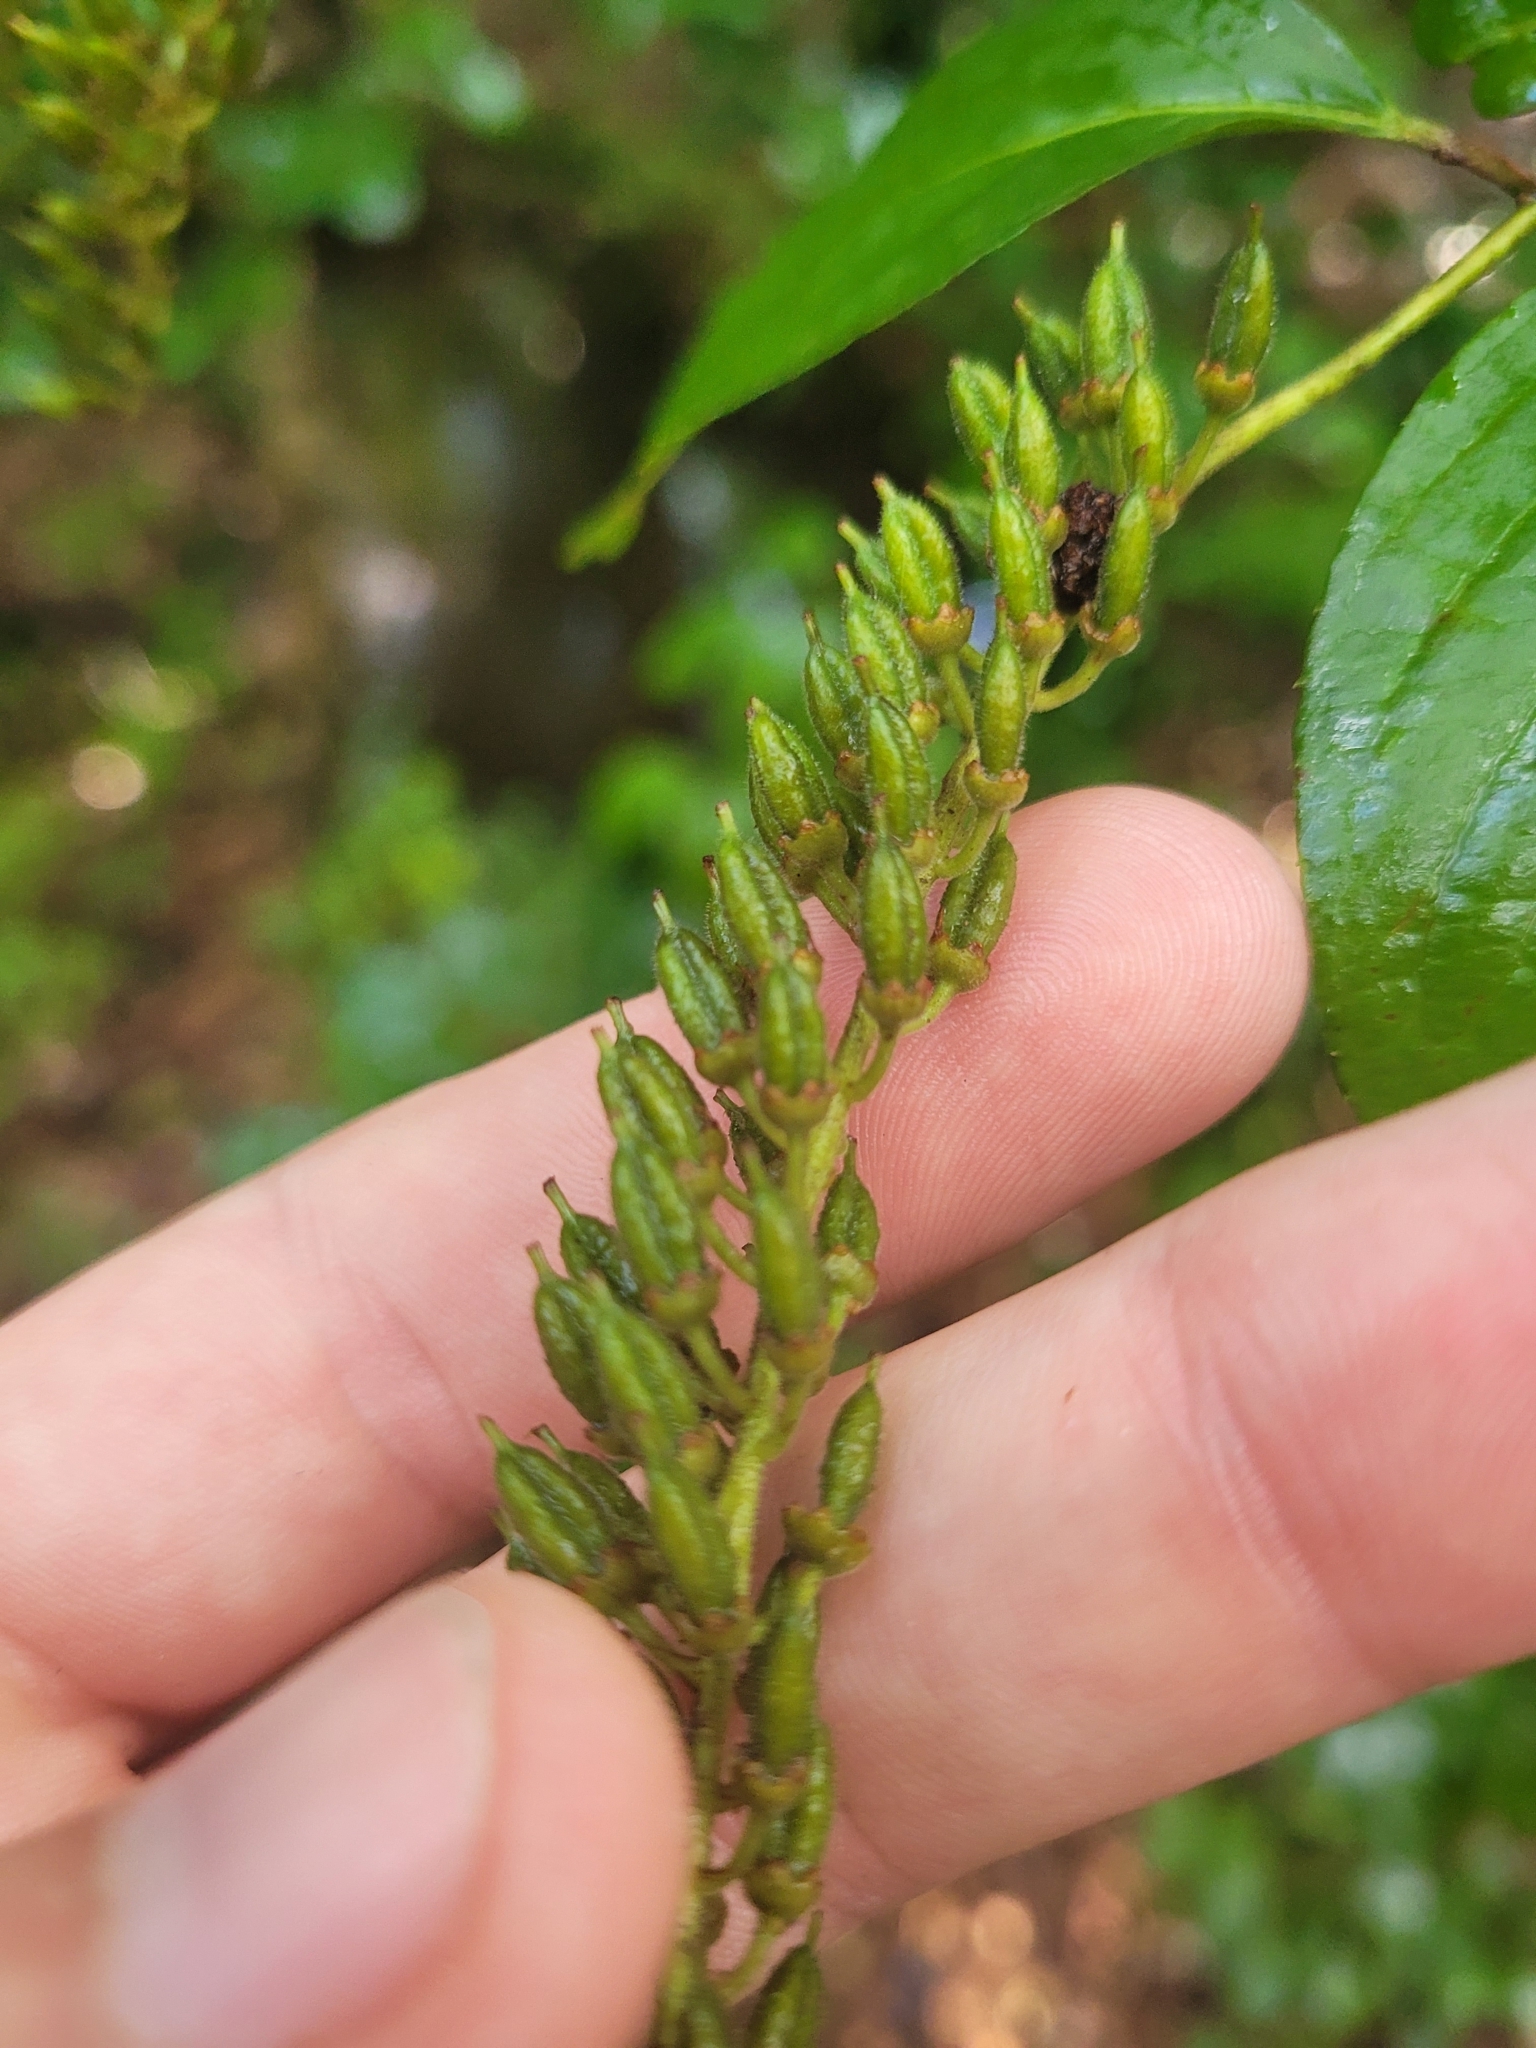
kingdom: Plantae
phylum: Tracheophyta
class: Magnoliopsida
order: Saxifragales
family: Iteaceae
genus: Itea
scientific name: Itea virginica
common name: Sweetspire
